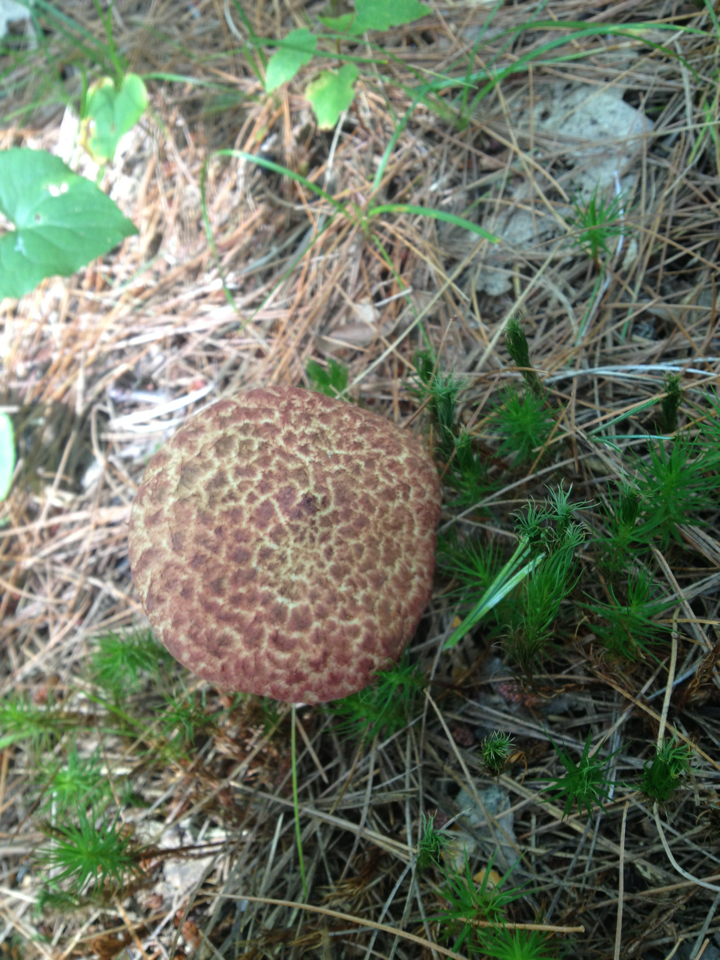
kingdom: Fungi
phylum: Basidiomycota
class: Agaricomycetes
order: Boletales
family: Suillaceae
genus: Suillus
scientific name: Suillus spraguei
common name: Painted suillus
